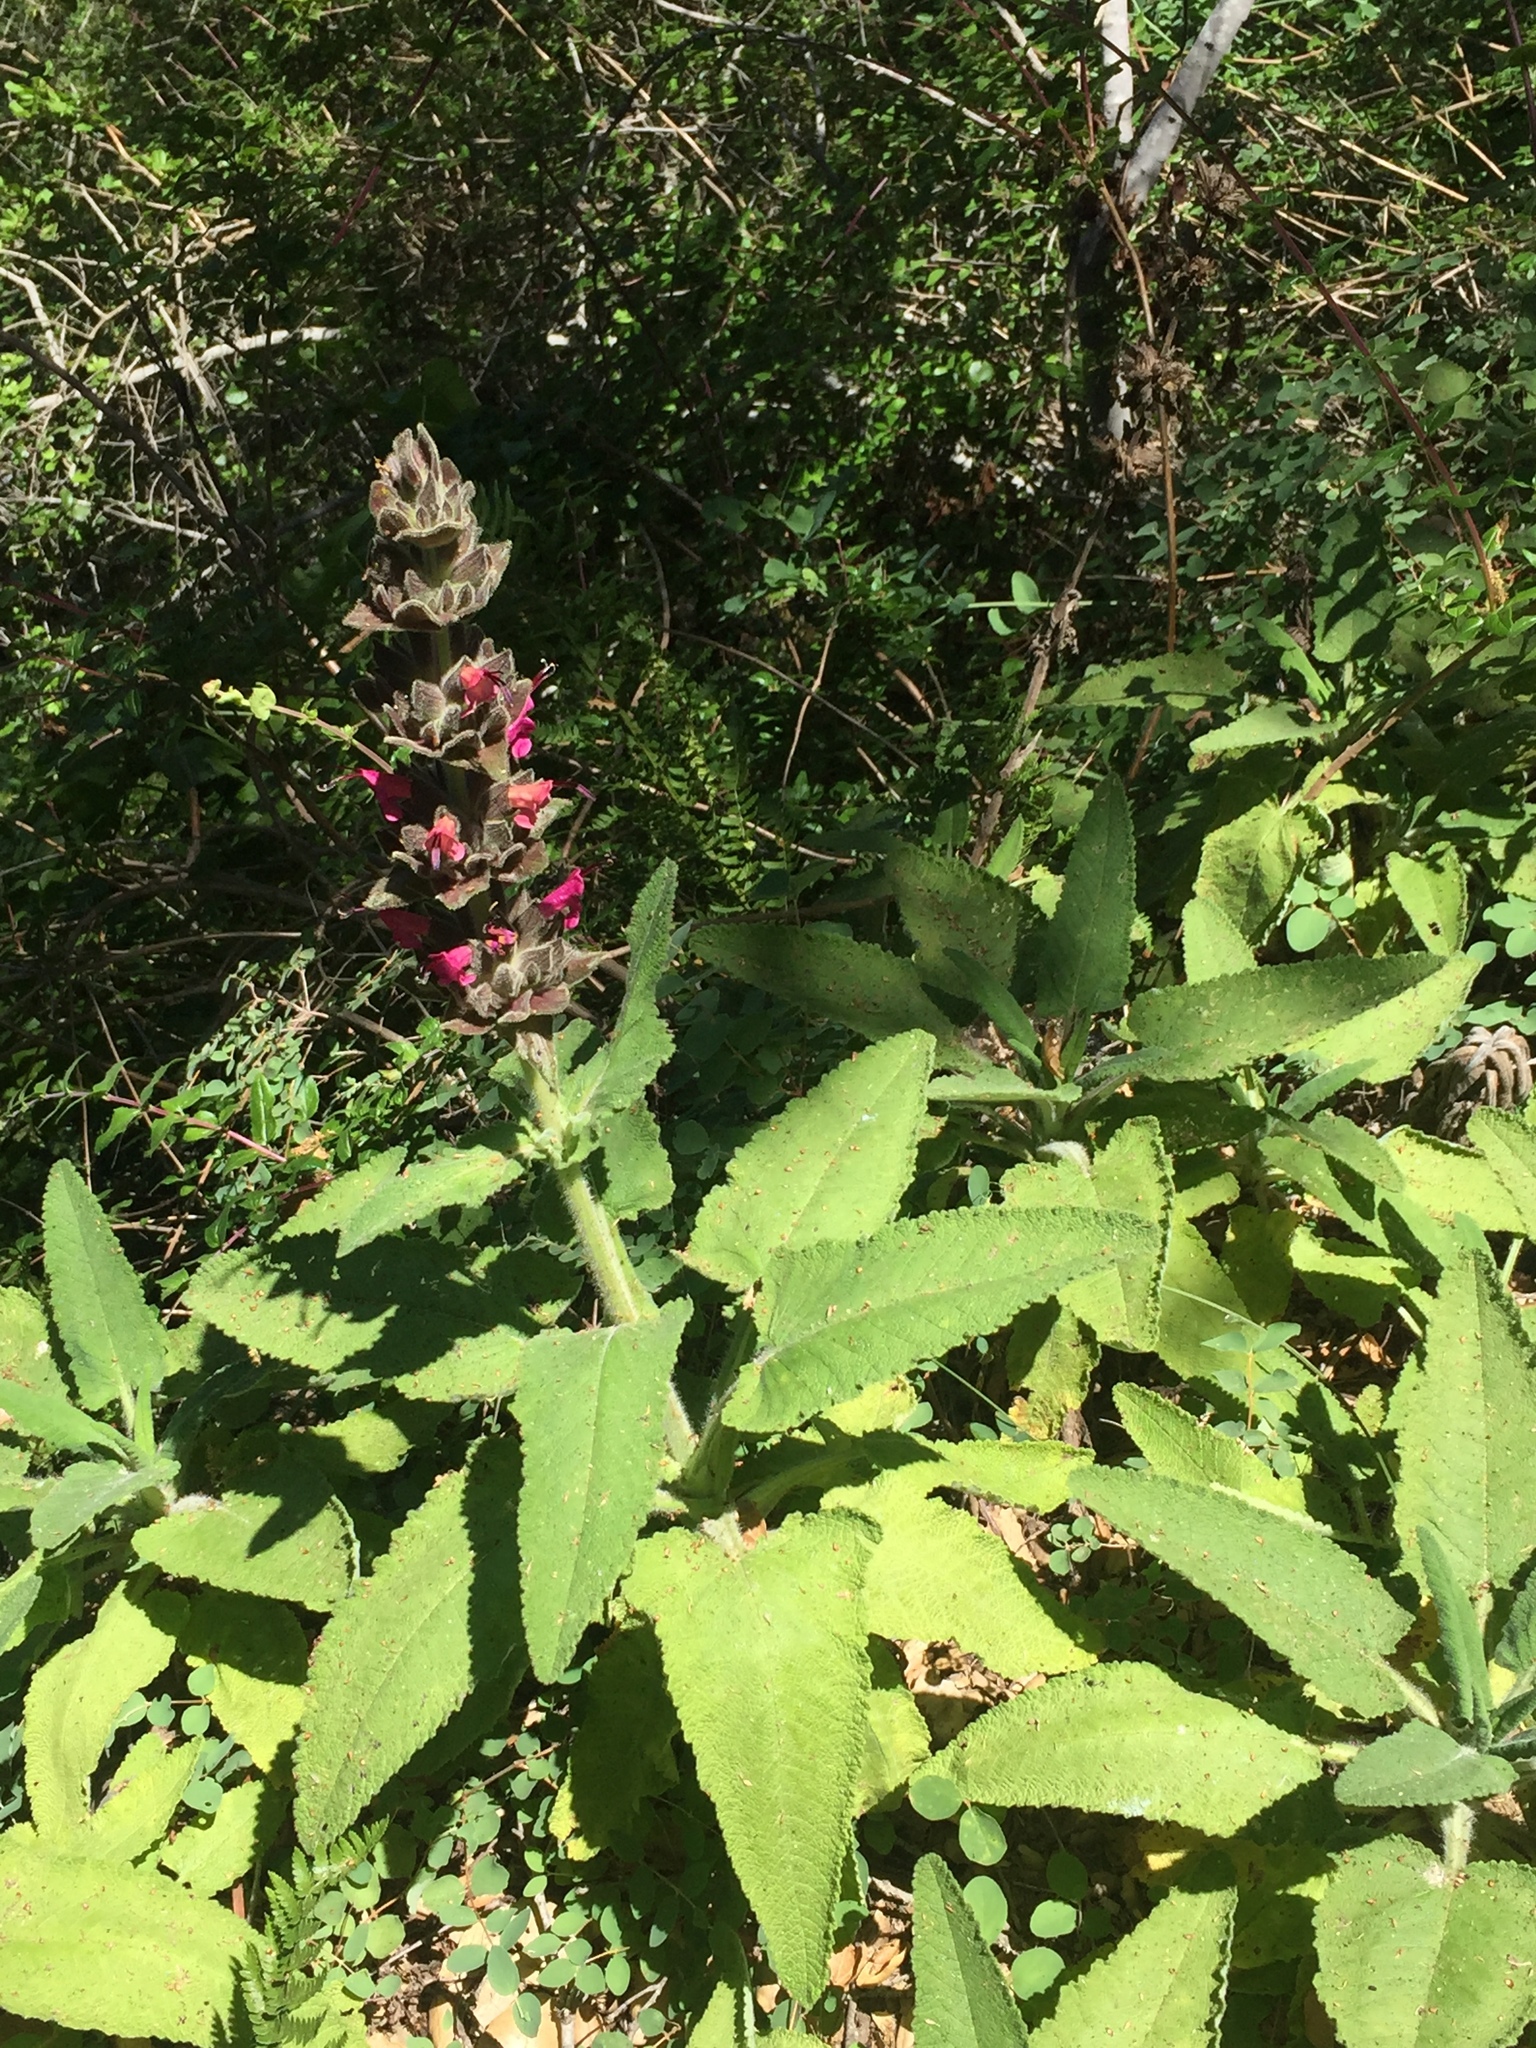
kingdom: Plantae
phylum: Tracheophyta
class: Magnoliopsida
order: Lamiales
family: Lamiaceae
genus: Salvia
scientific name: Salvia spathacea
